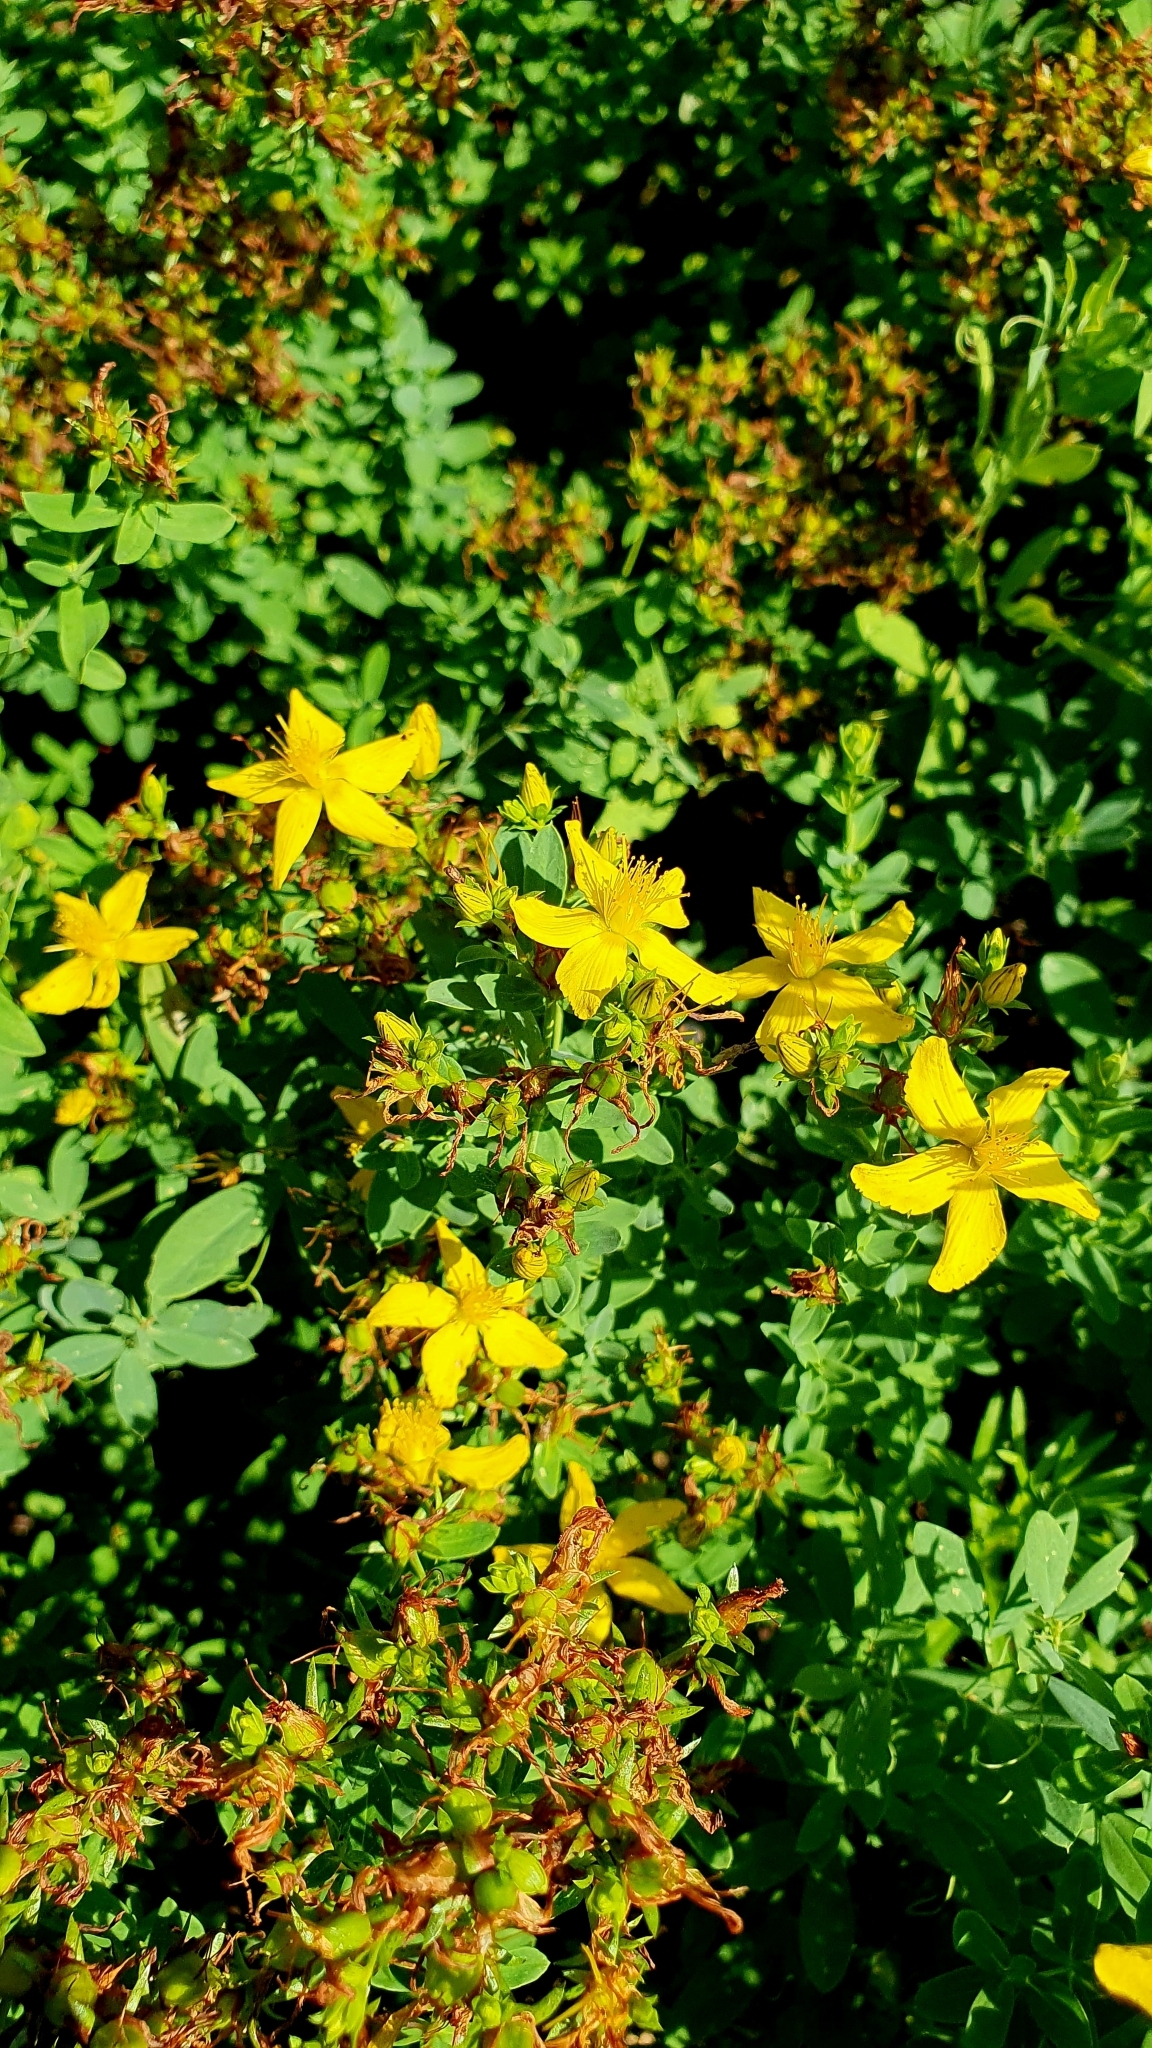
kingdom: Plantae
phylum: Tracheophyta
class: Magnoliopsida
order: Malpighiales
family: Hypericaceae
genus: Hypericum
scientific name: Hypericum perforatum
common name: Common st. johnswort
